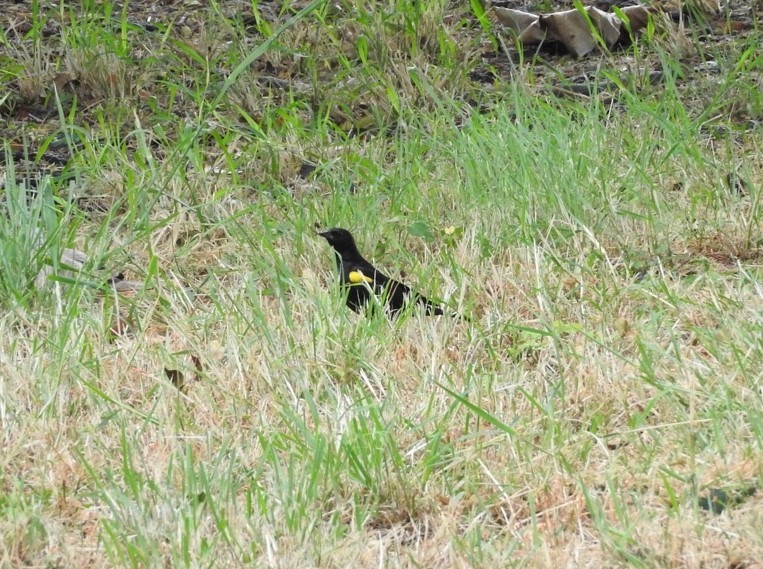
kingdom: Animalia
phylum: Chordata
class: Aves
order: Passeriformes
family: Icteridae
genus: Agelaius
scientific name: Agelaius xanthomus
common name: Yellow-shouldered blackbird
